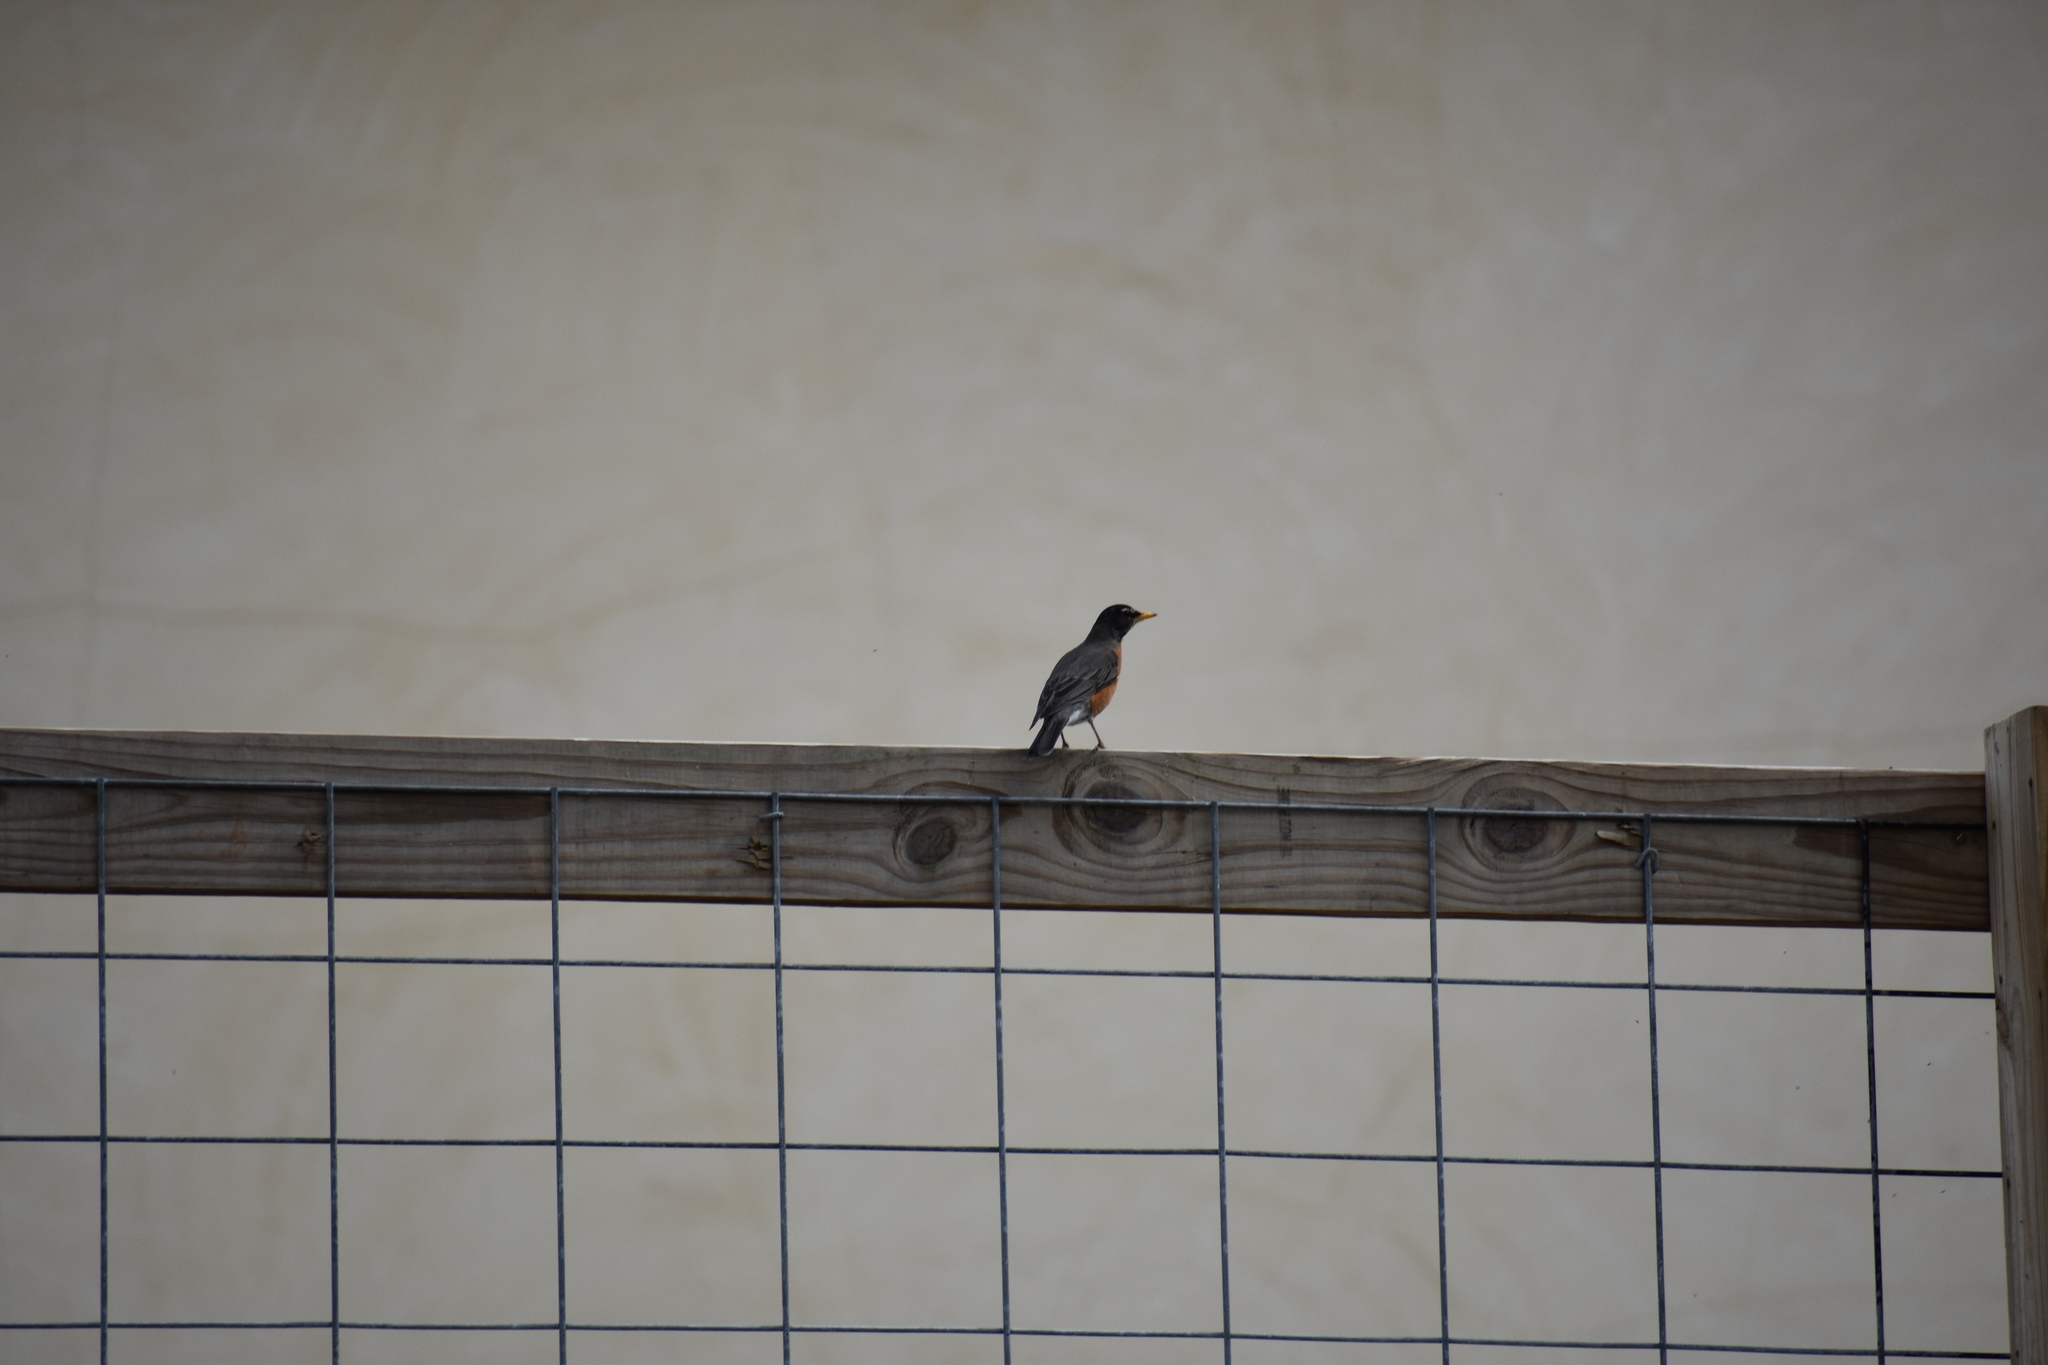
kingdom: Animalia
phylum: Chordata
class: Aves
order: Passeriformes
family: Turdidae
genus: Turdus
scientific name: Turdus migratorius
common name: American robin
